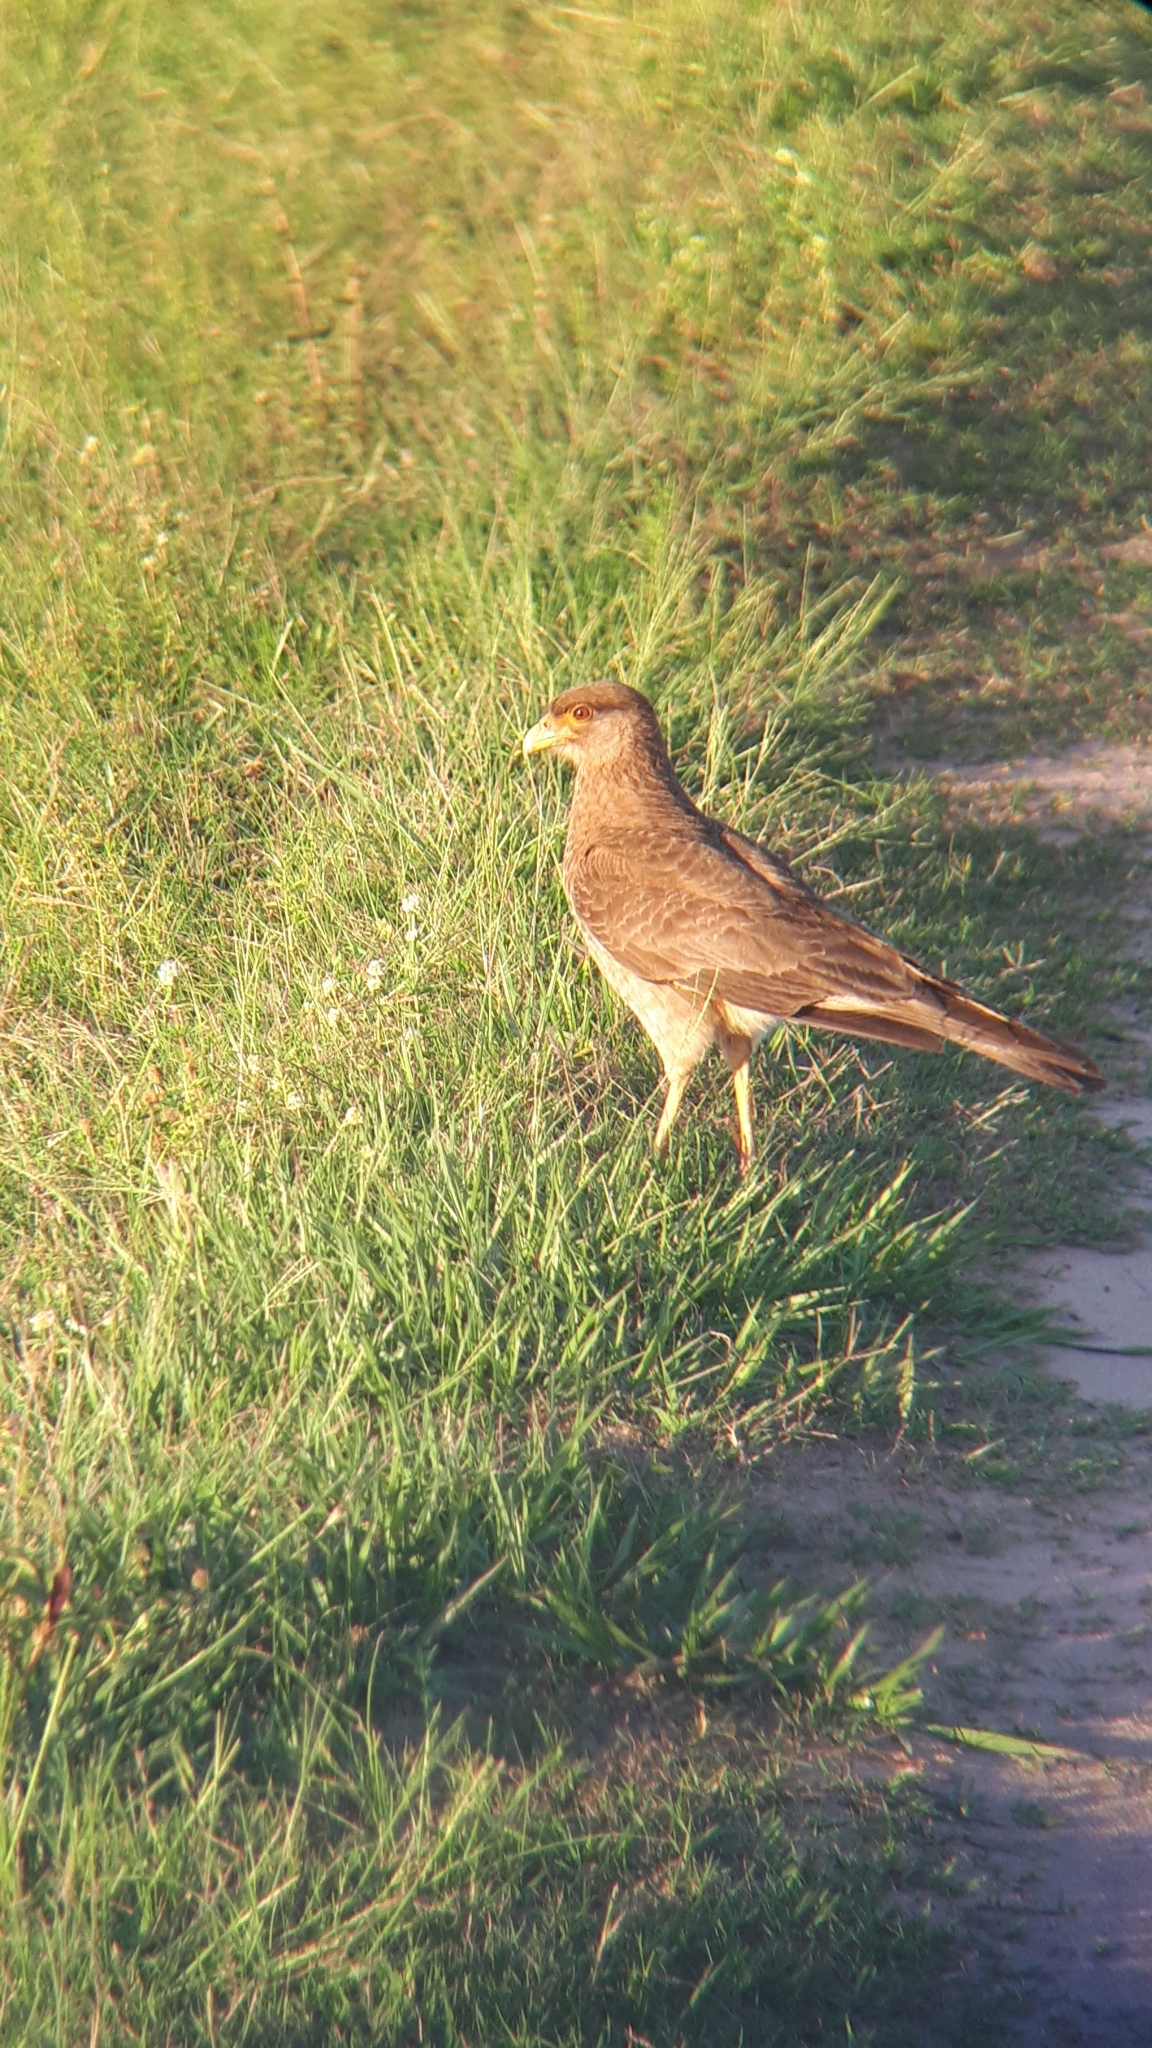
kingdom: Animalia
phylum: Chordata
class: Aves
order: Falconiformes
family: Falconidae
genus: Daptrius
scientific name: Daptrius
